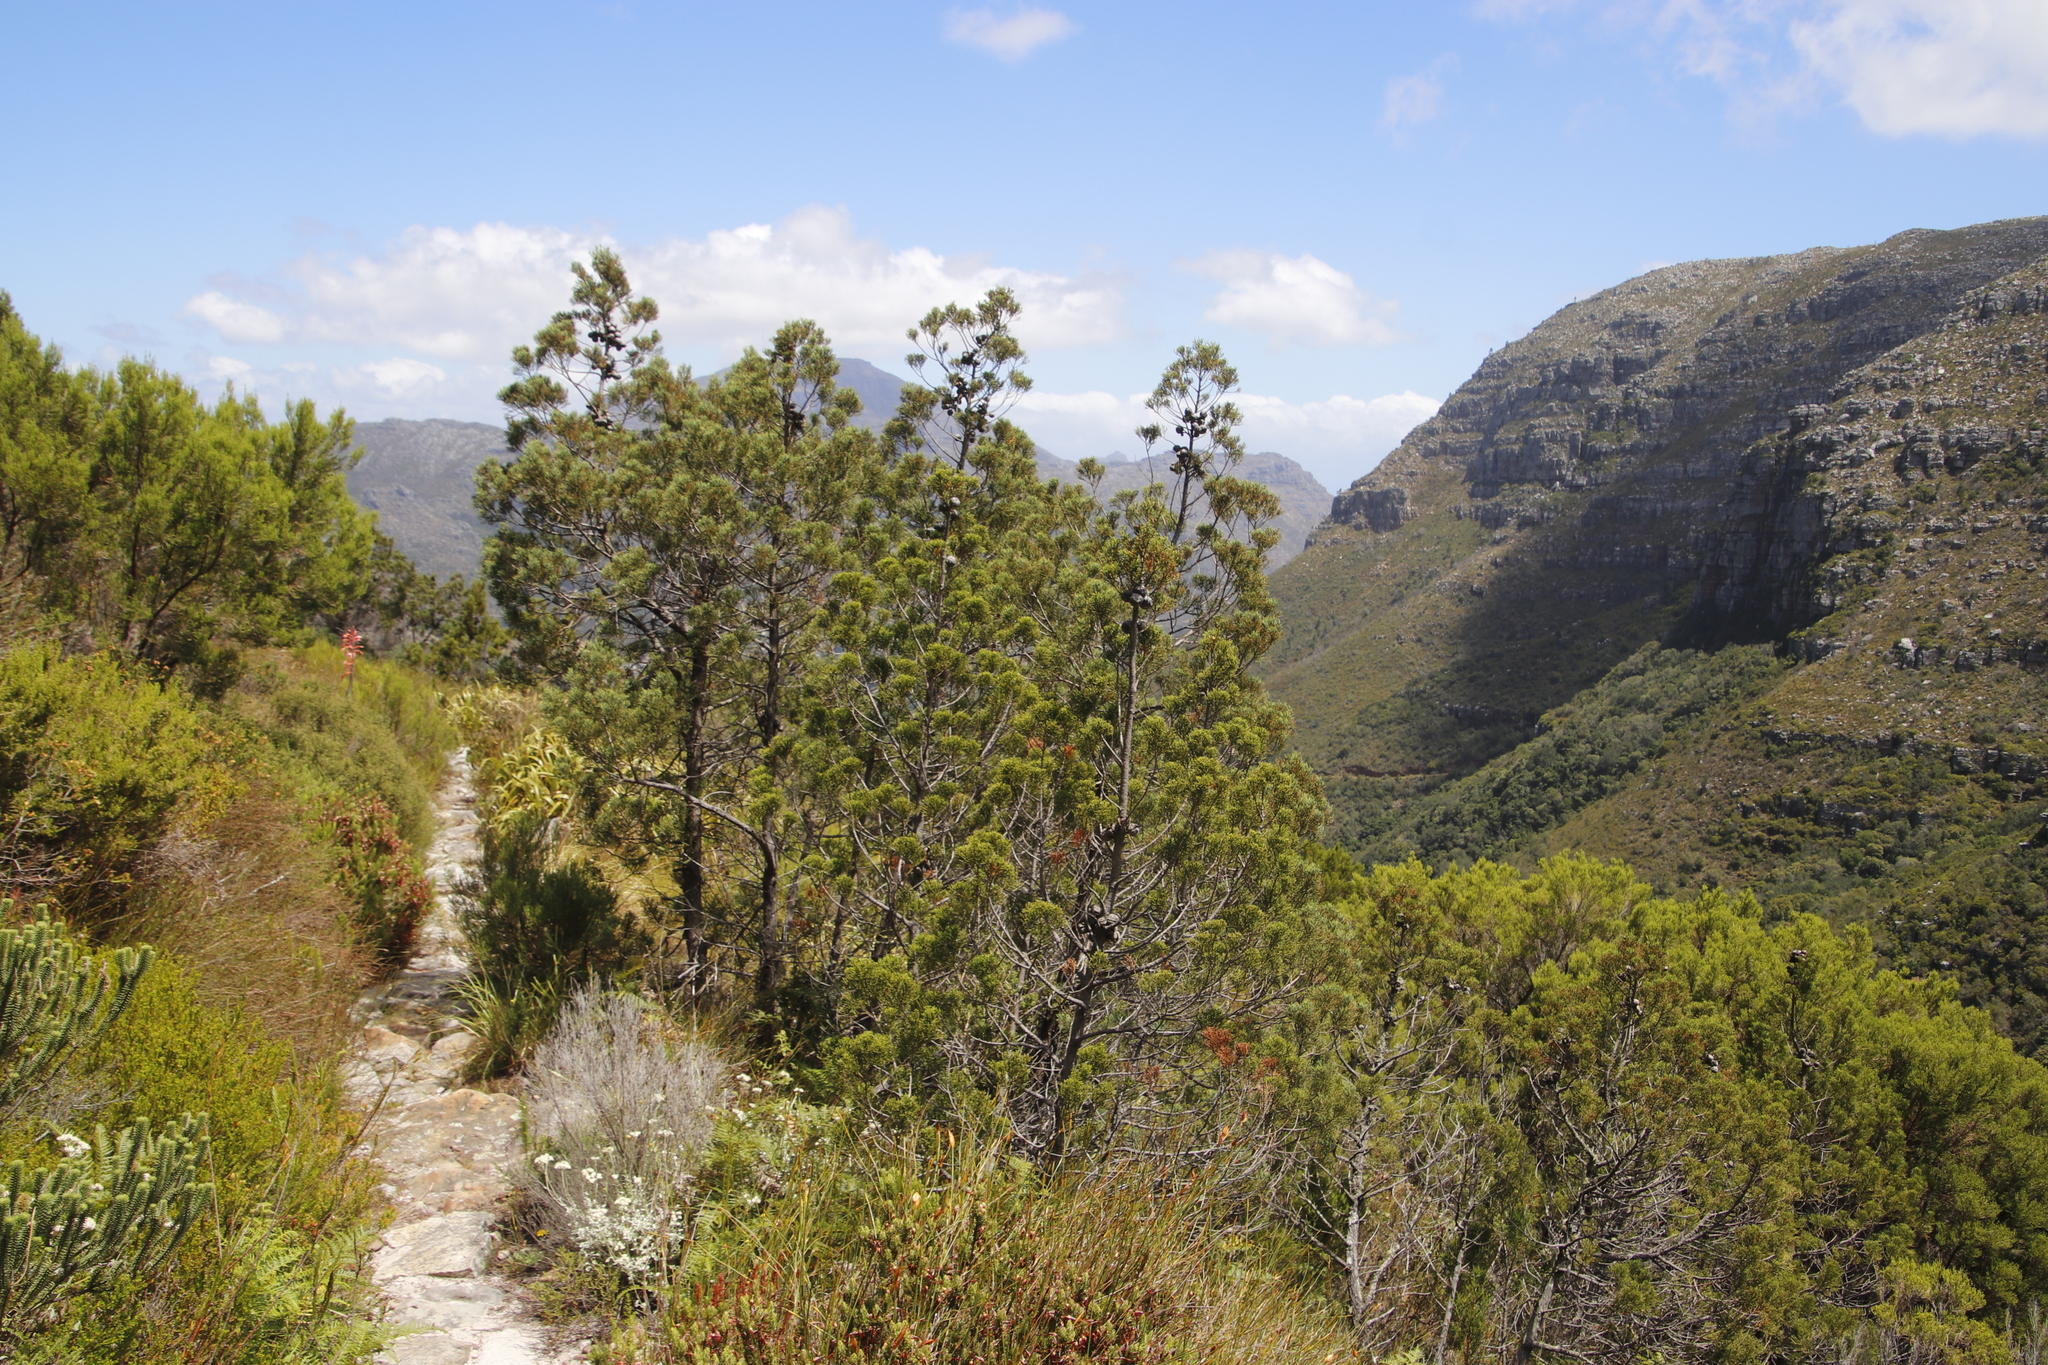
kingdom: Plantae
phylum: Tracheophyta
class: Pinopsida
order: Pinales
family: Cupressaceae
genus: Widdringtonia
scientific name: Widdringtonia nodiflora
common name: Cape cypress
